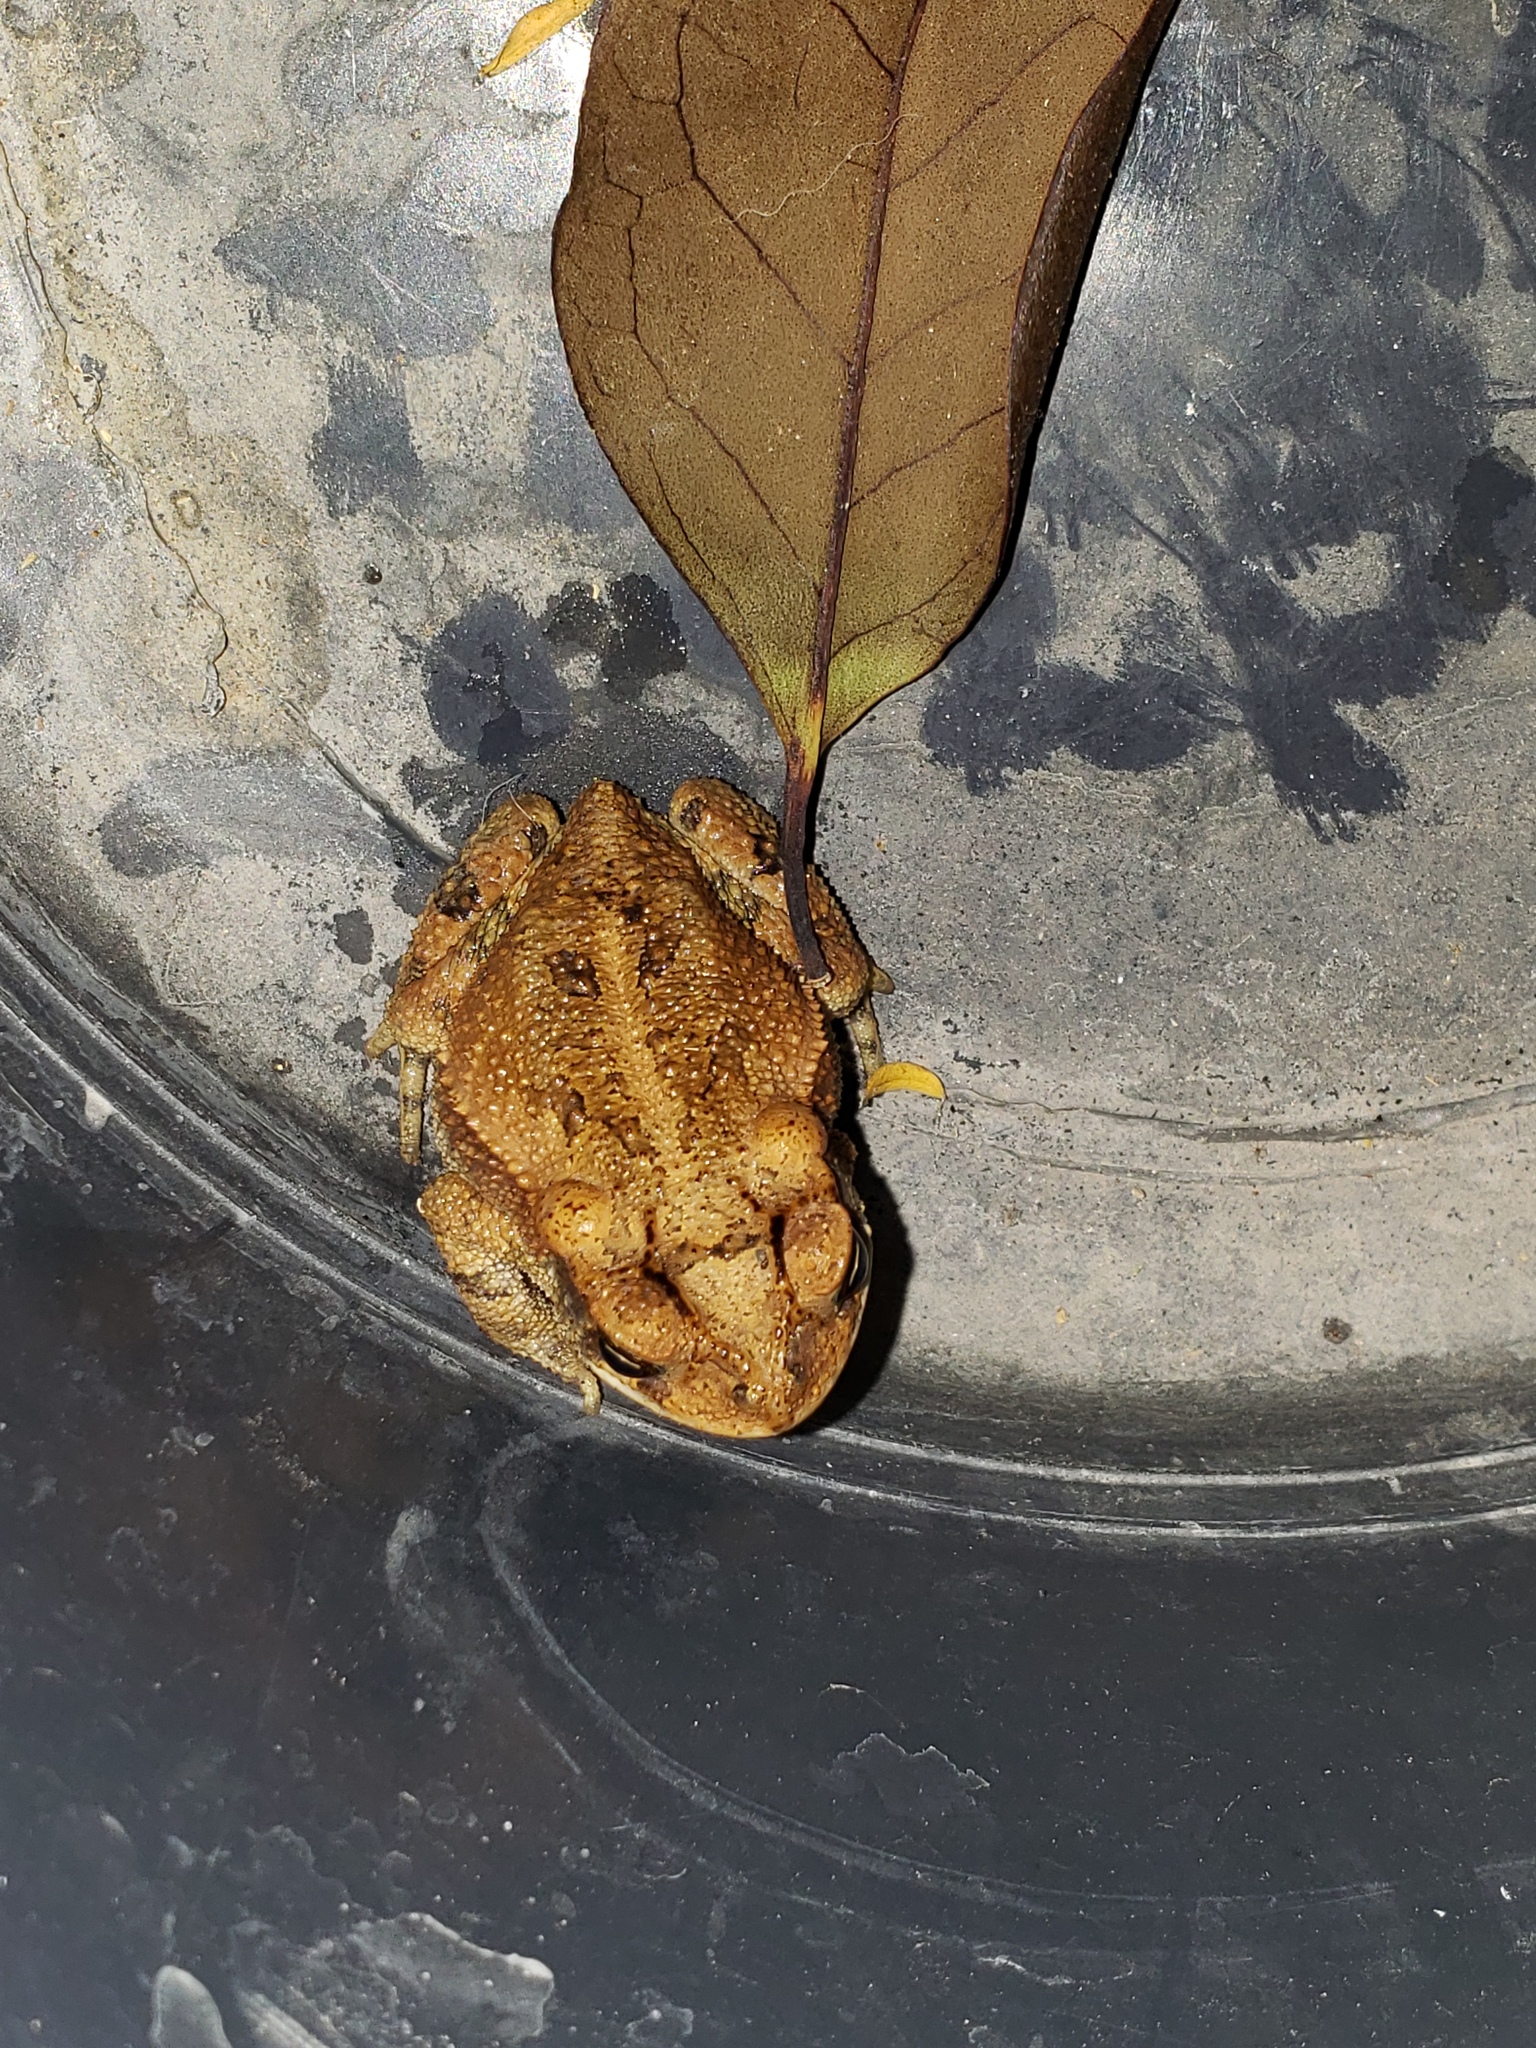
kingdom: Animalia
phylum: Chordata
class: Amphibia
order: Anura
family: Bufonidae
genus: Incilius
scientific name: Incilius nebulifer
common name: Gulf coast toad
